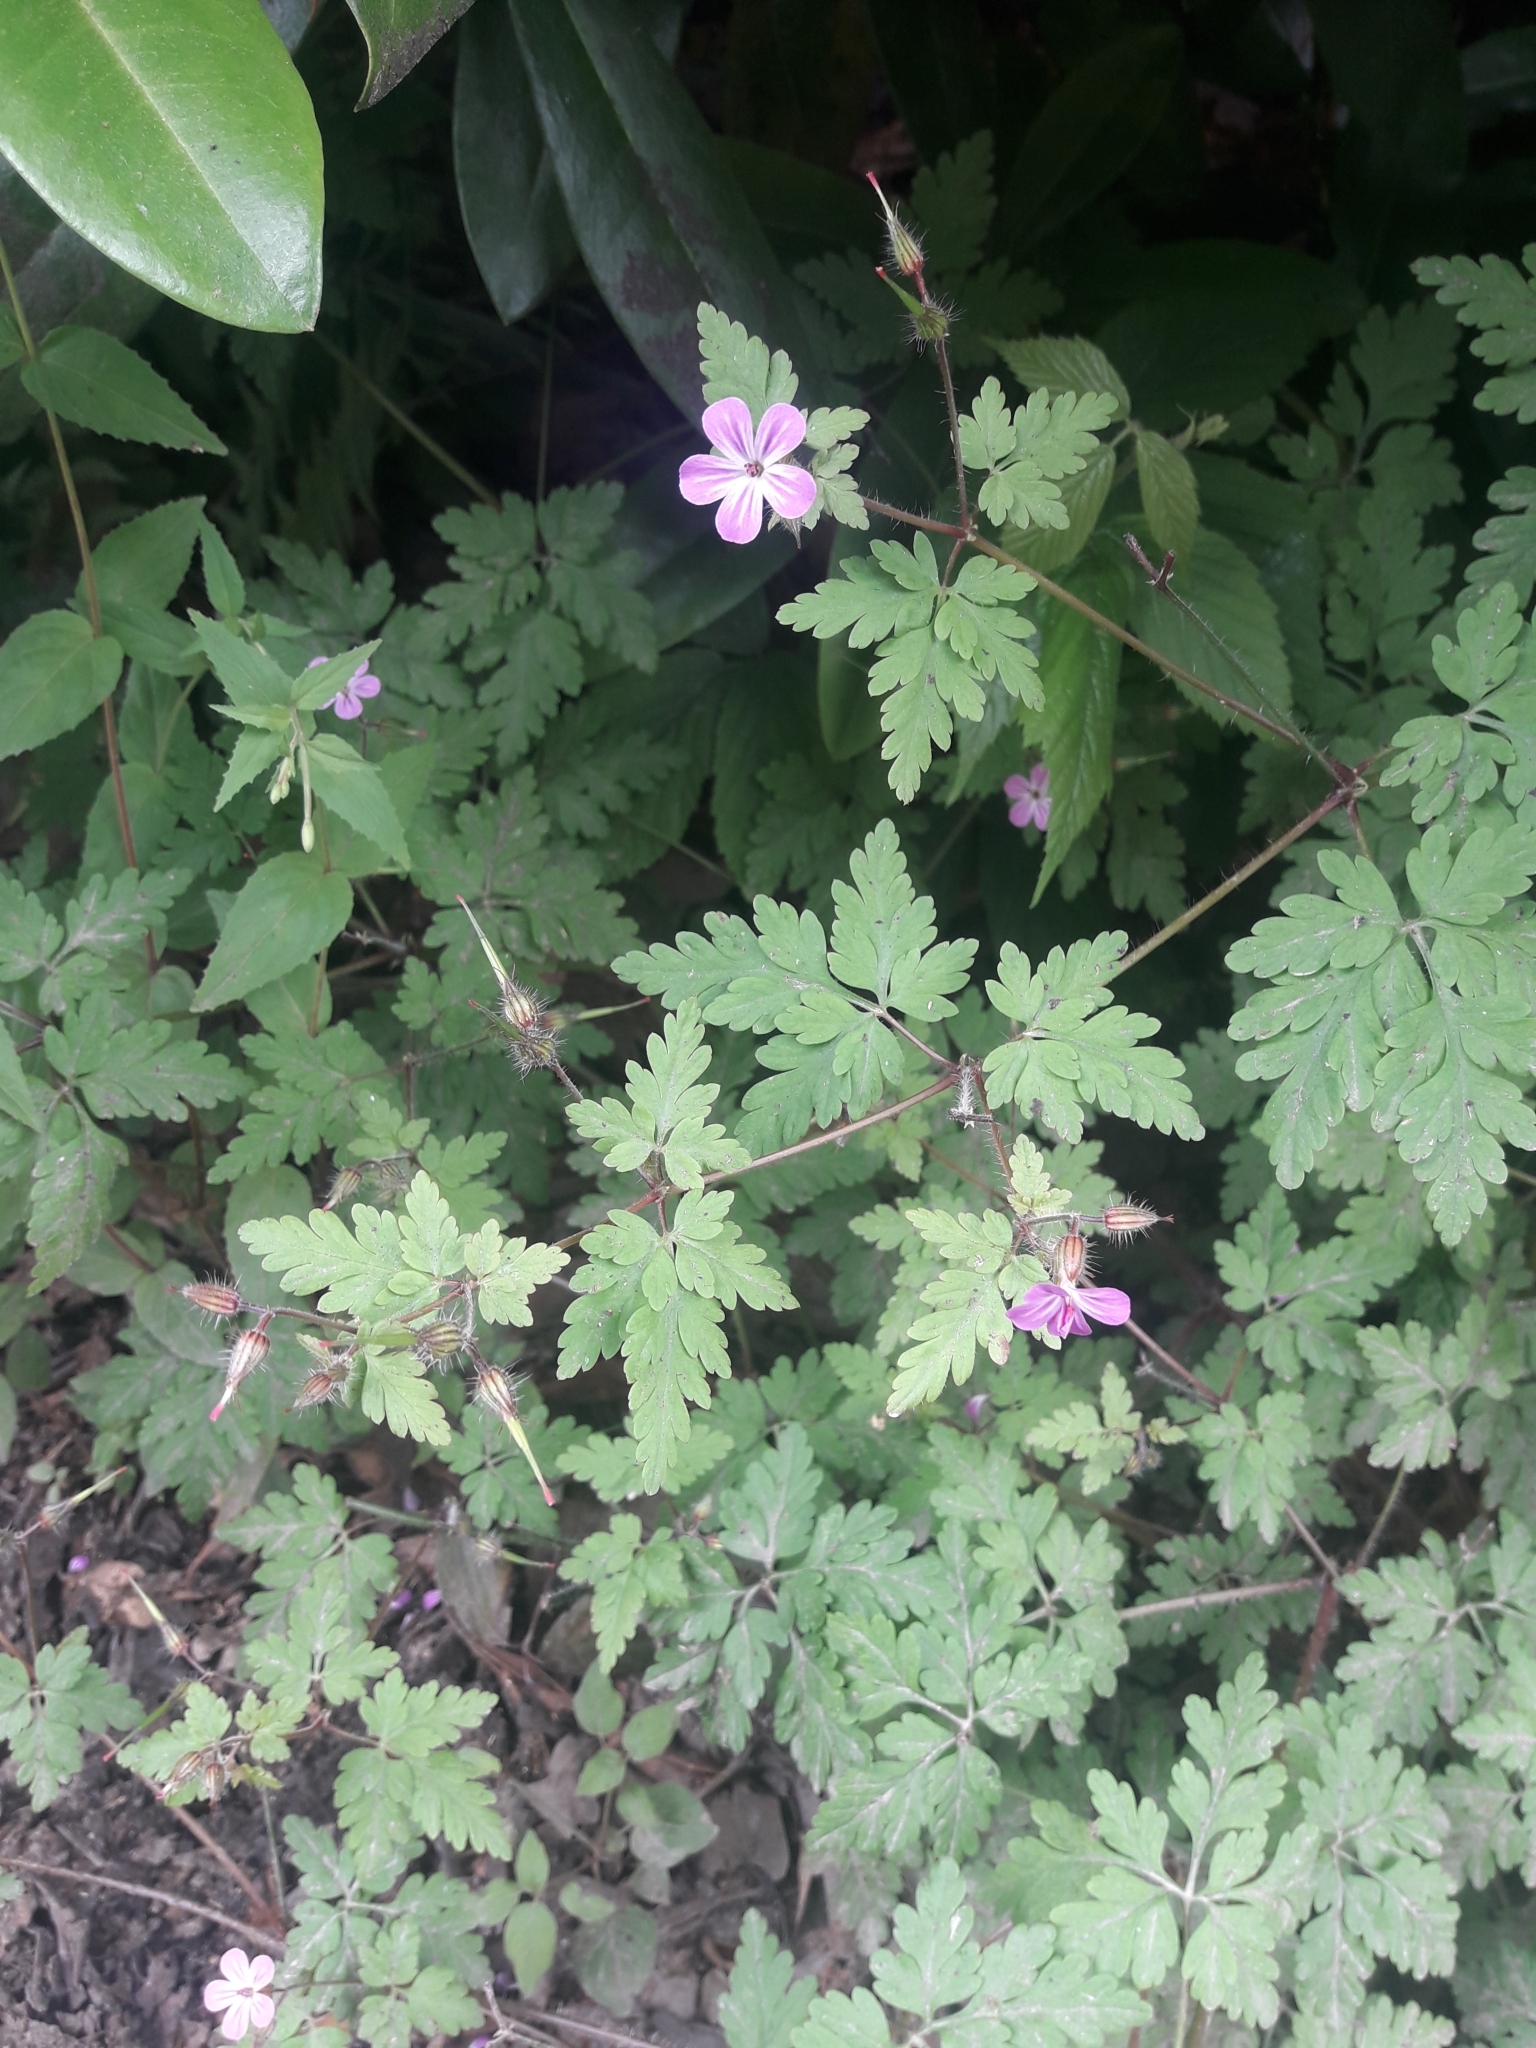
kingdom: Plantae
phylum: Tracheophyta
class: Magnoliopsida
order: Geraniales
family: Geraniaceae
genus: Geranium
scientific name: Geranium robertianum
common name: Herb-robert
